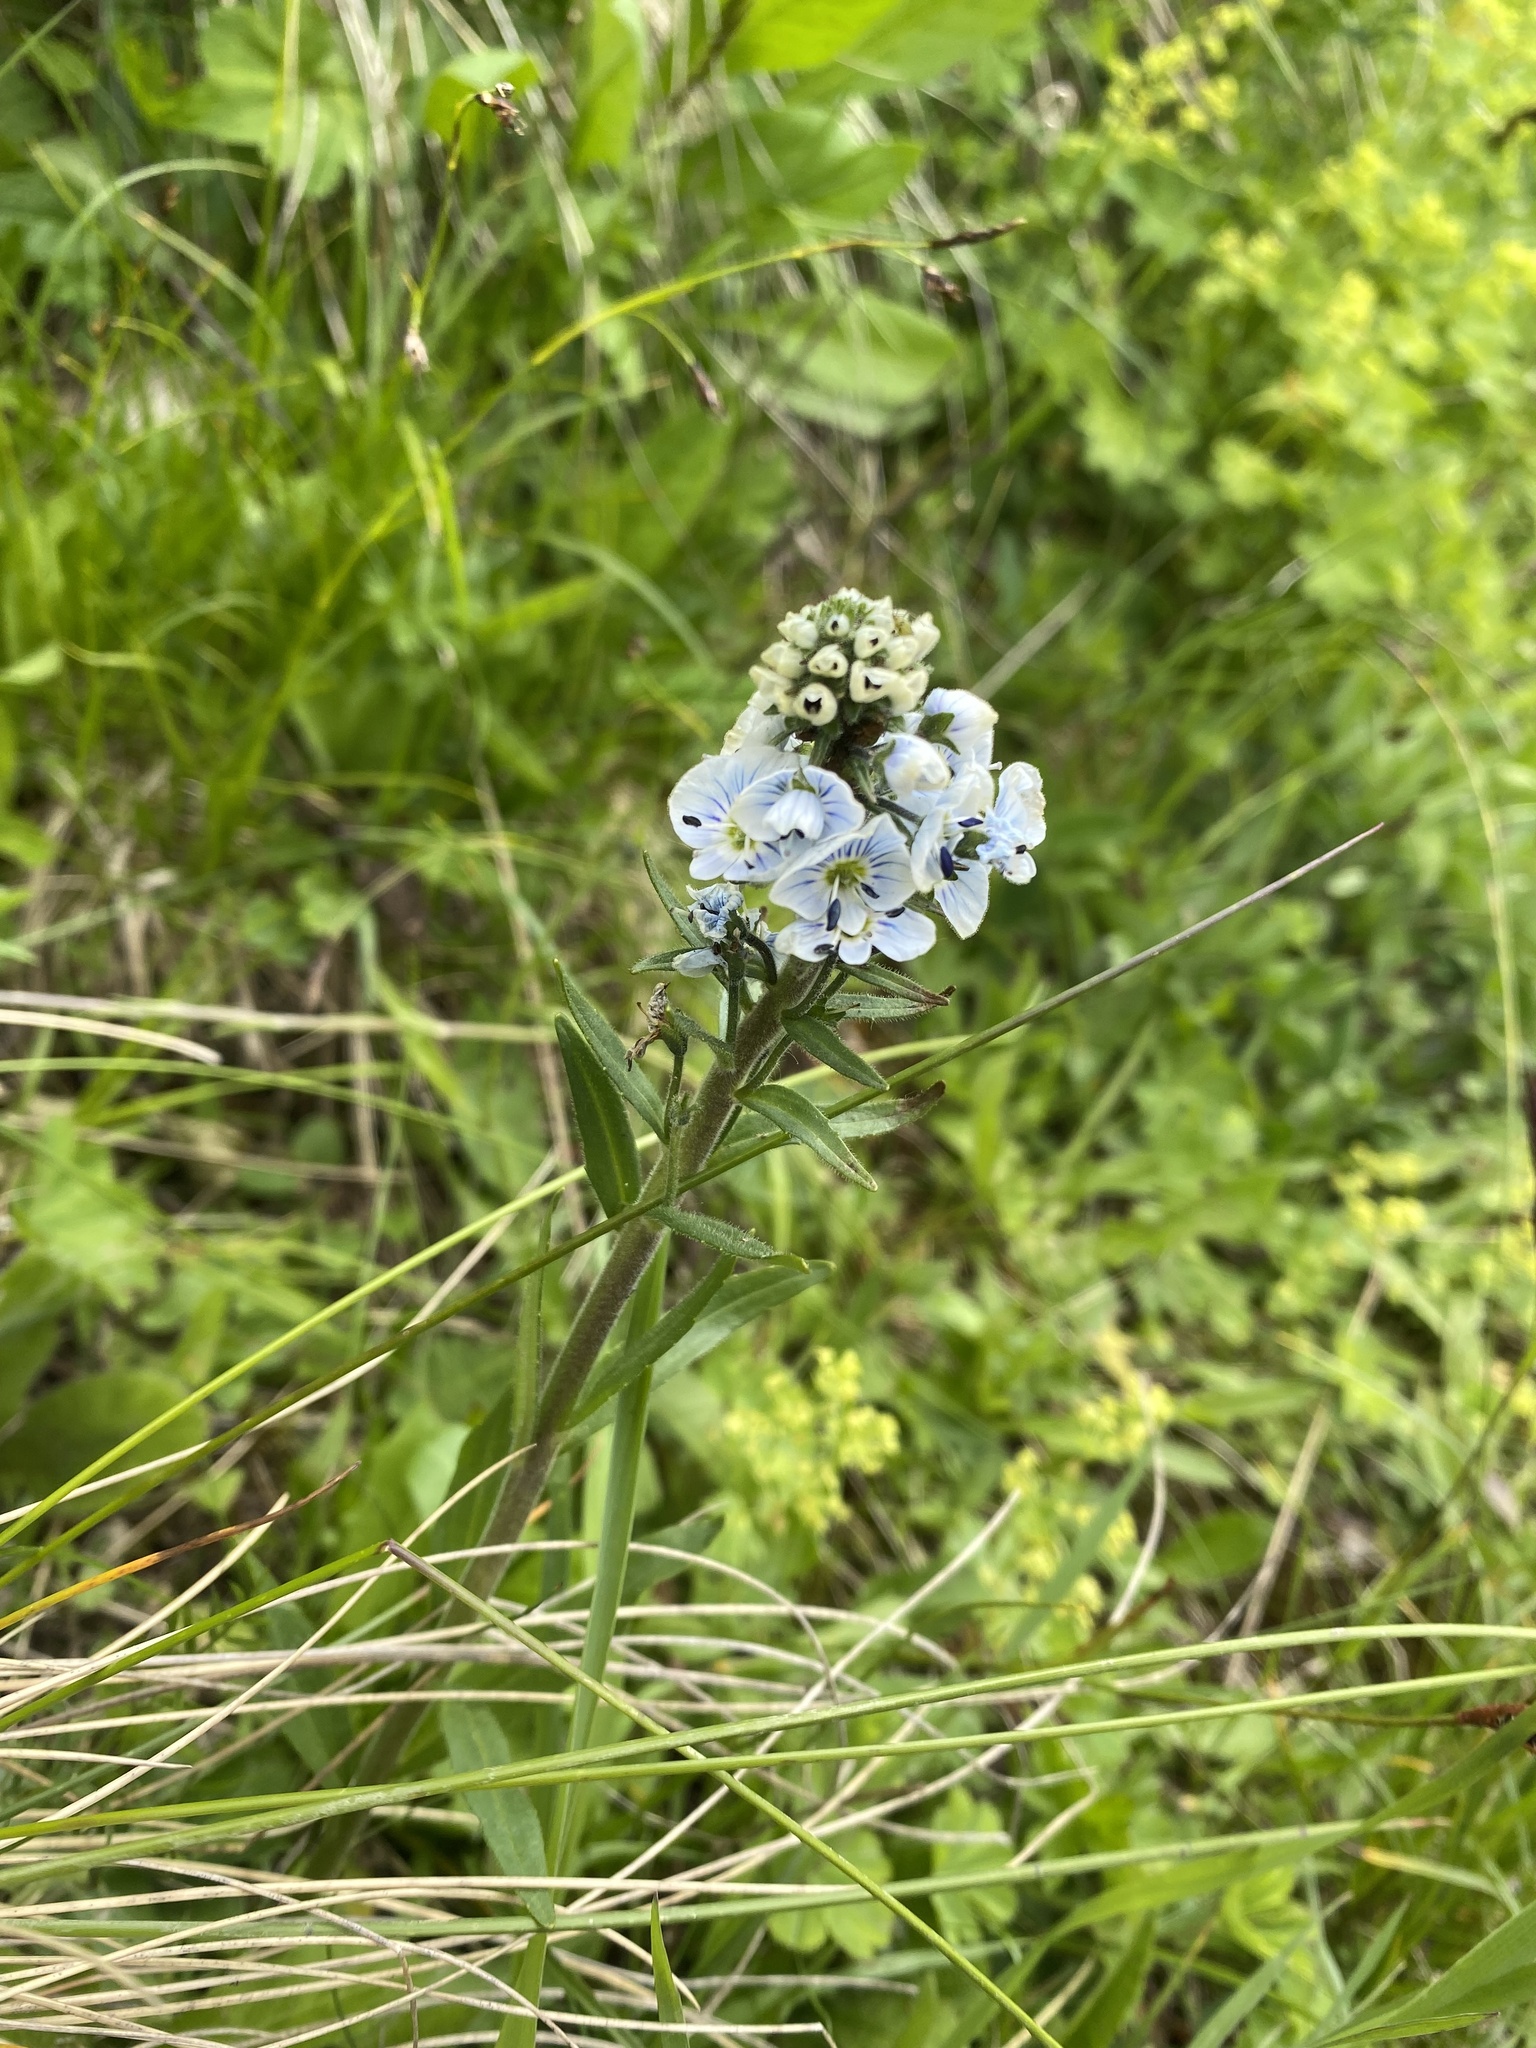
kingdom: Plantae
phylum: Tracheophyta
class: Magnoliopsida
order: Lamiales
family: Plantaginaceae
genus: Veronica
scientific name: Veronica gentianoides
